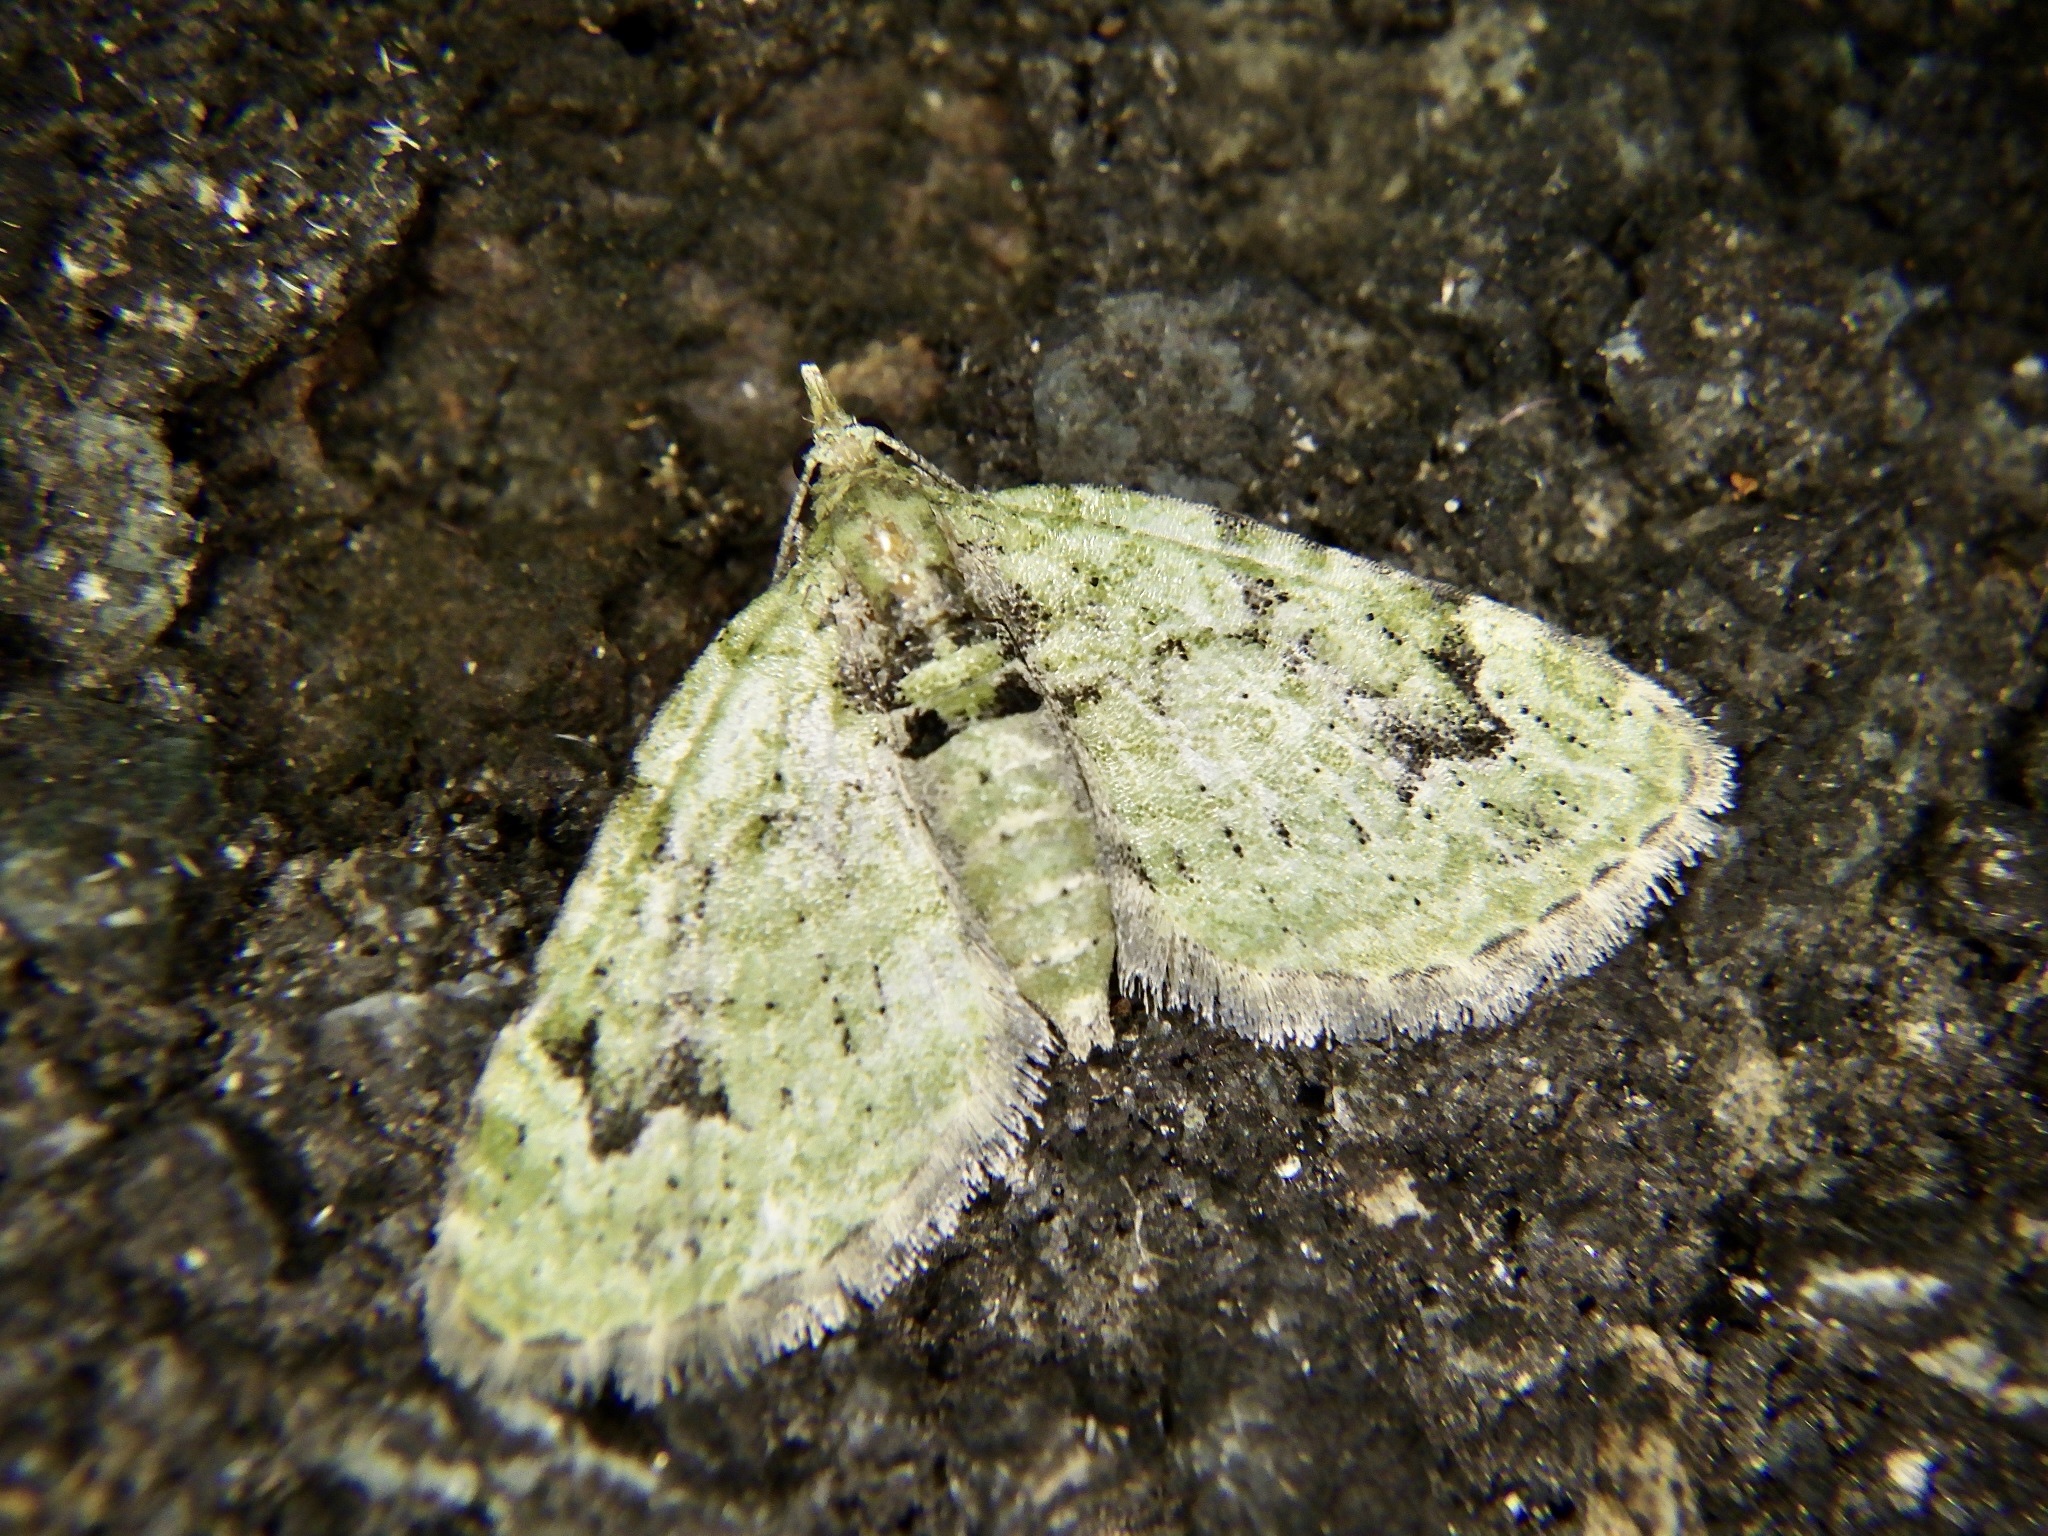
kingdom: Animalia
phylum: Arthropoda
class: Insecta
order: Lepidoptera
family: Geometridae
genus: Chloroclystis
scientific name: Chloroclystis v-ata
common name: V-pug
